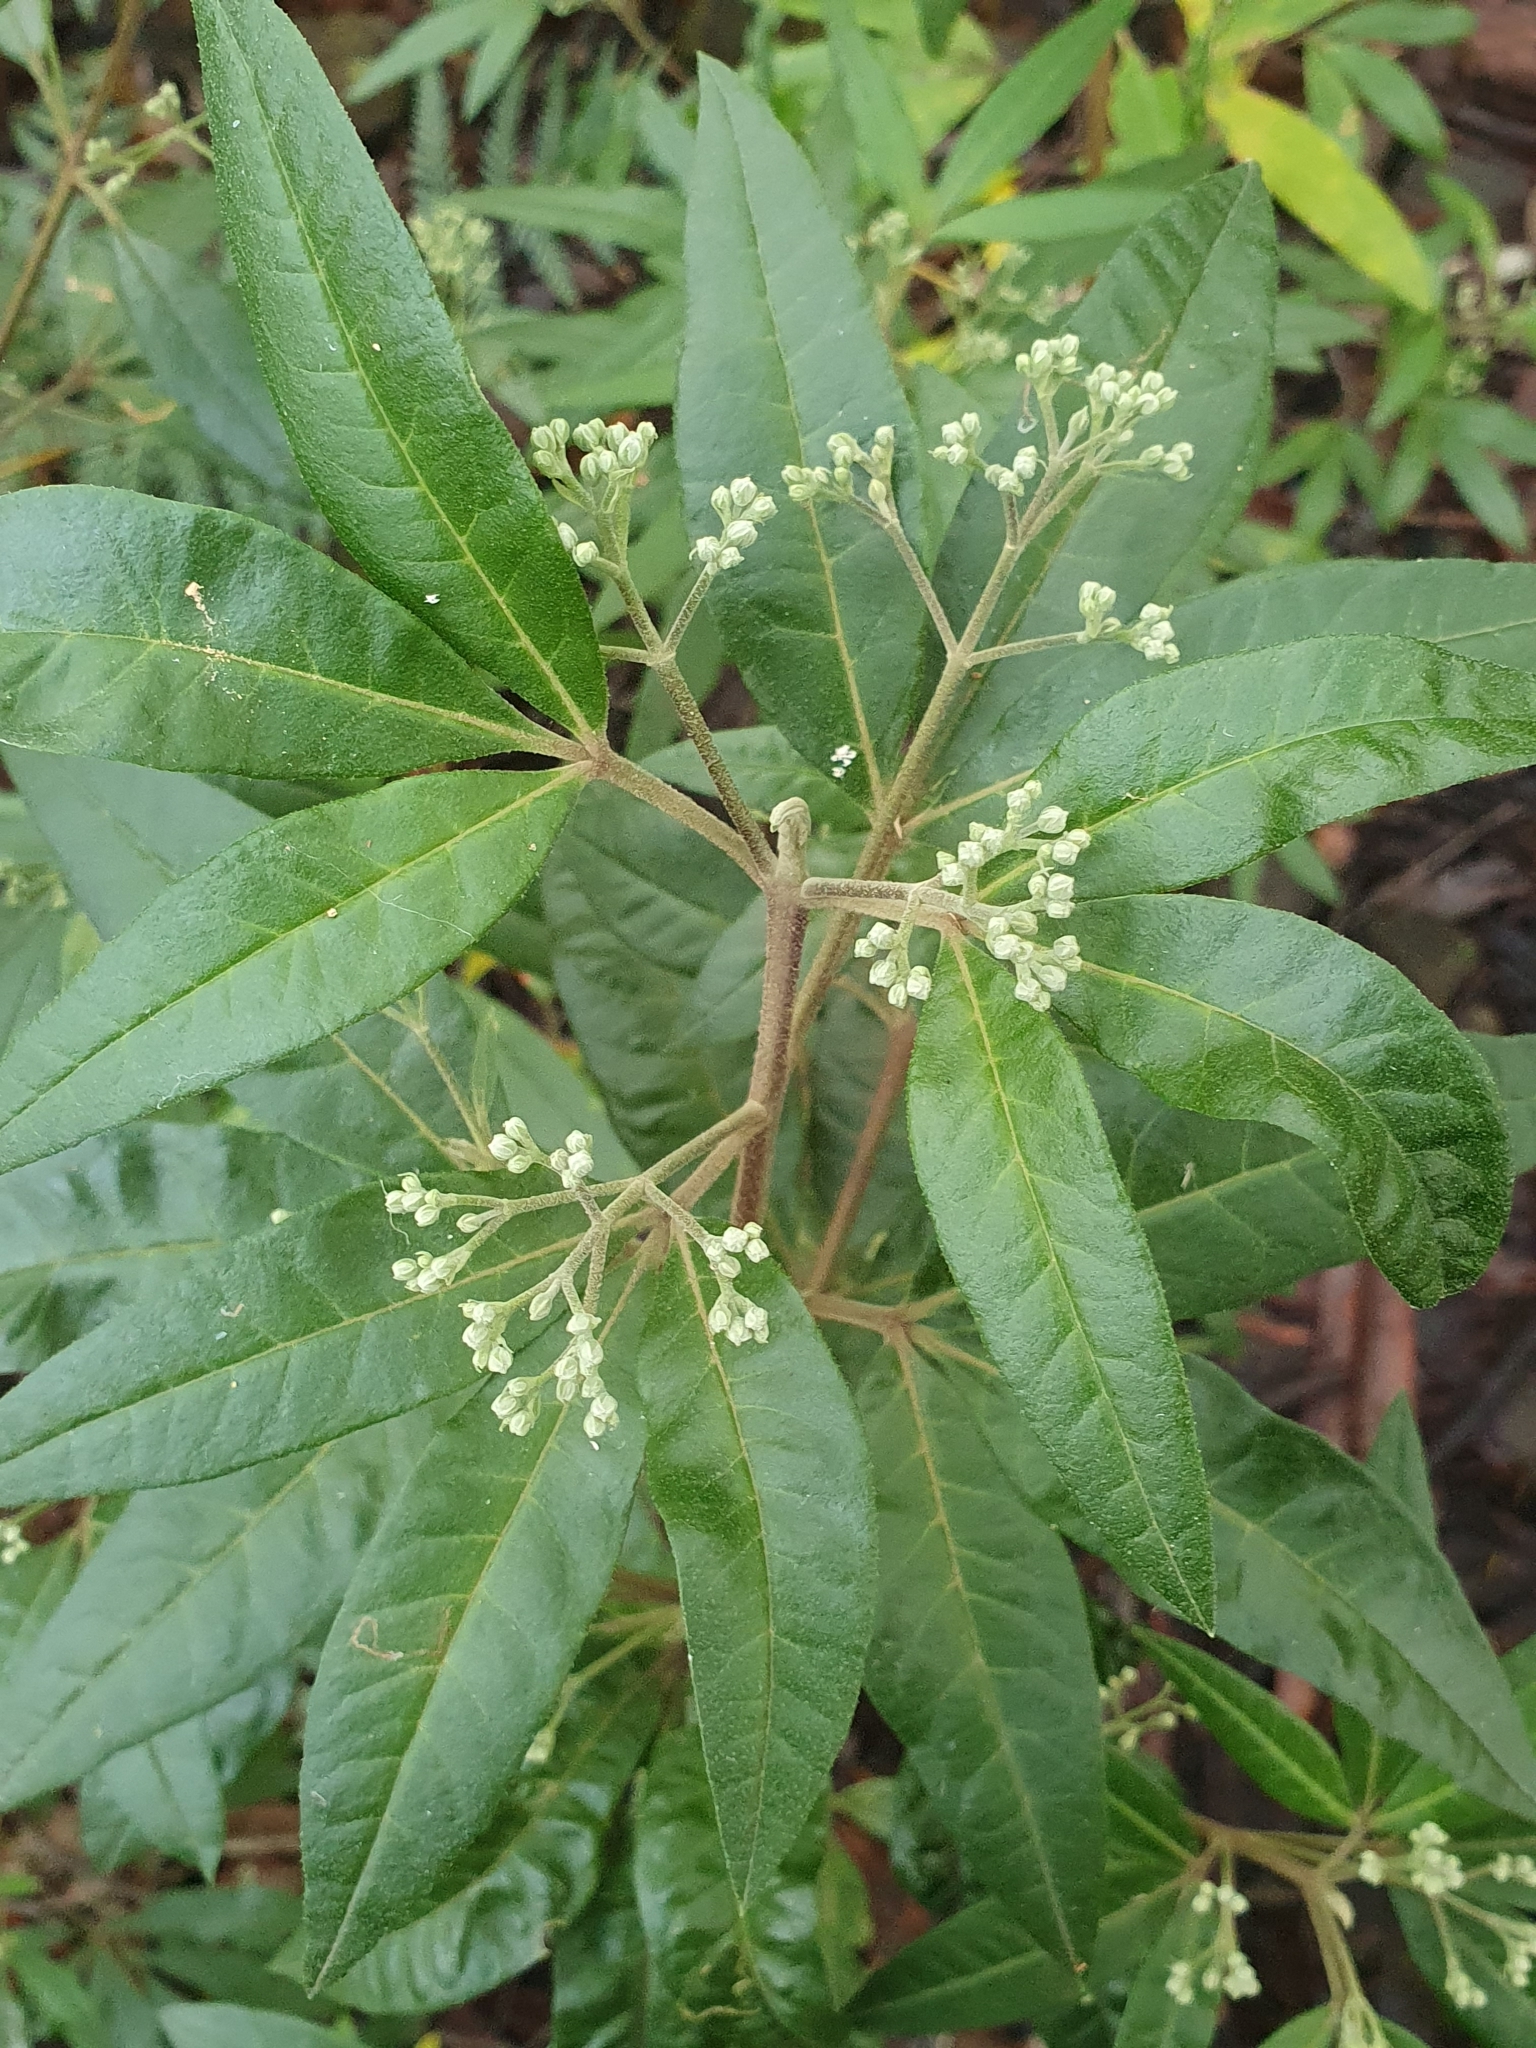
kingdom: Plantae
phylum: Tracheophyta
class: Magnoliopsida
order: Sapindales
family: Rutaceae
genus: Zieria
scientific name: Zieria arborescens
